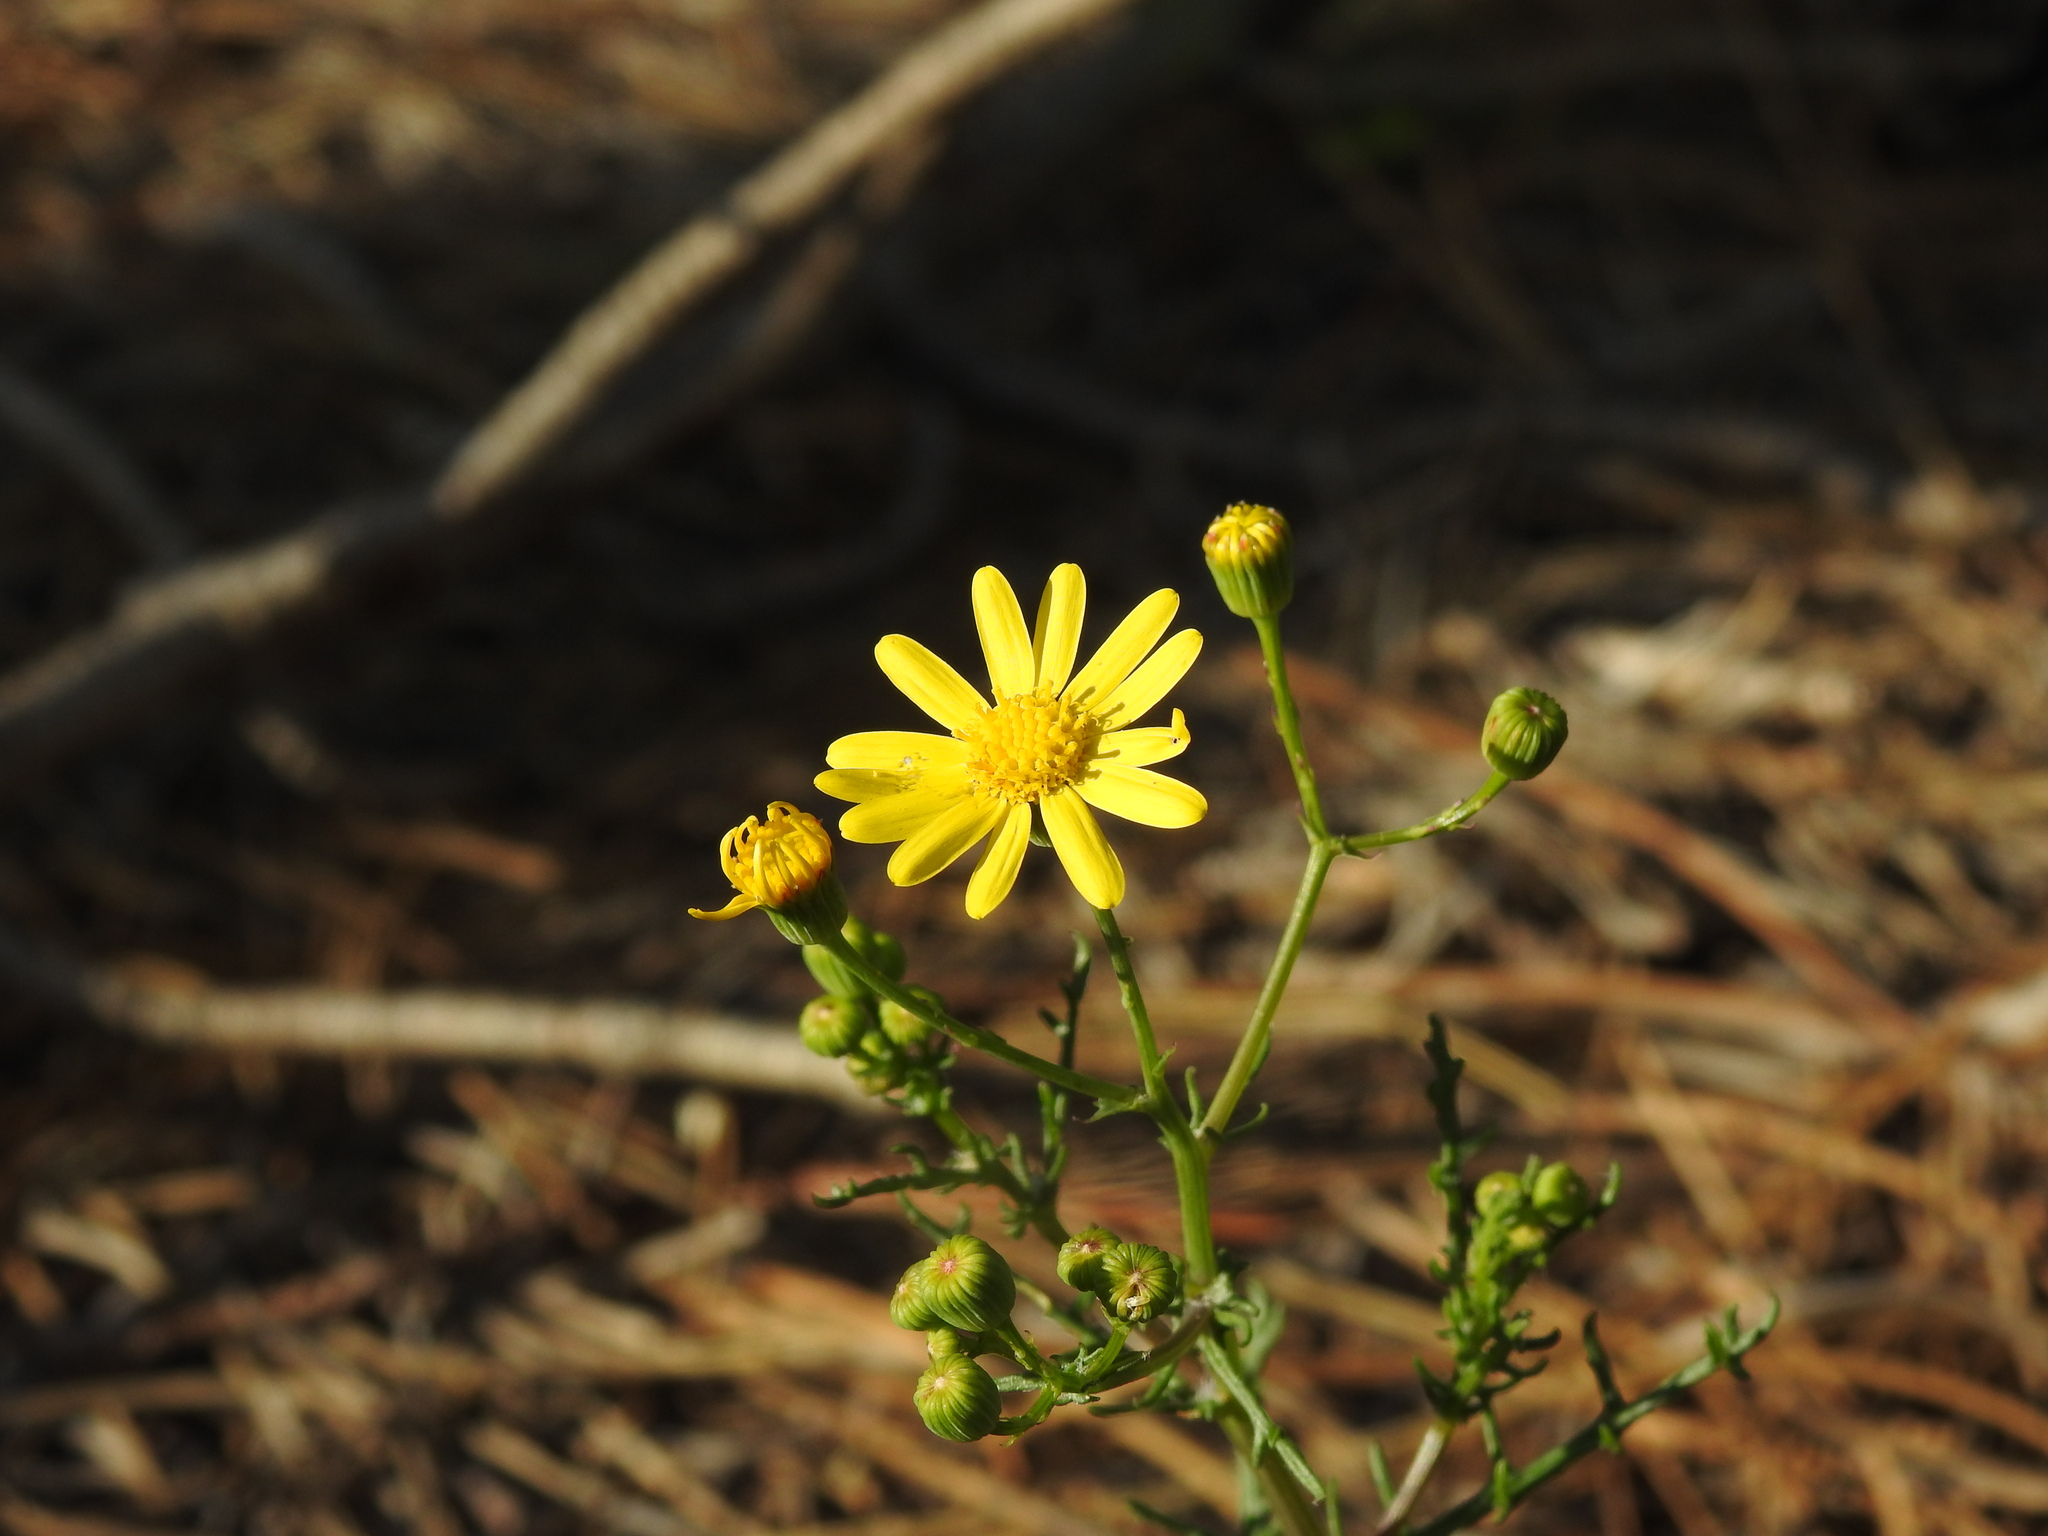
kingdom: Plantae
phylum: Tracheophyta
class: Magnoliopsida
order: Asterales
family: Asteraceae
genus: Senecio
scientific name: Senecio gallicus
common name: French groundsel
